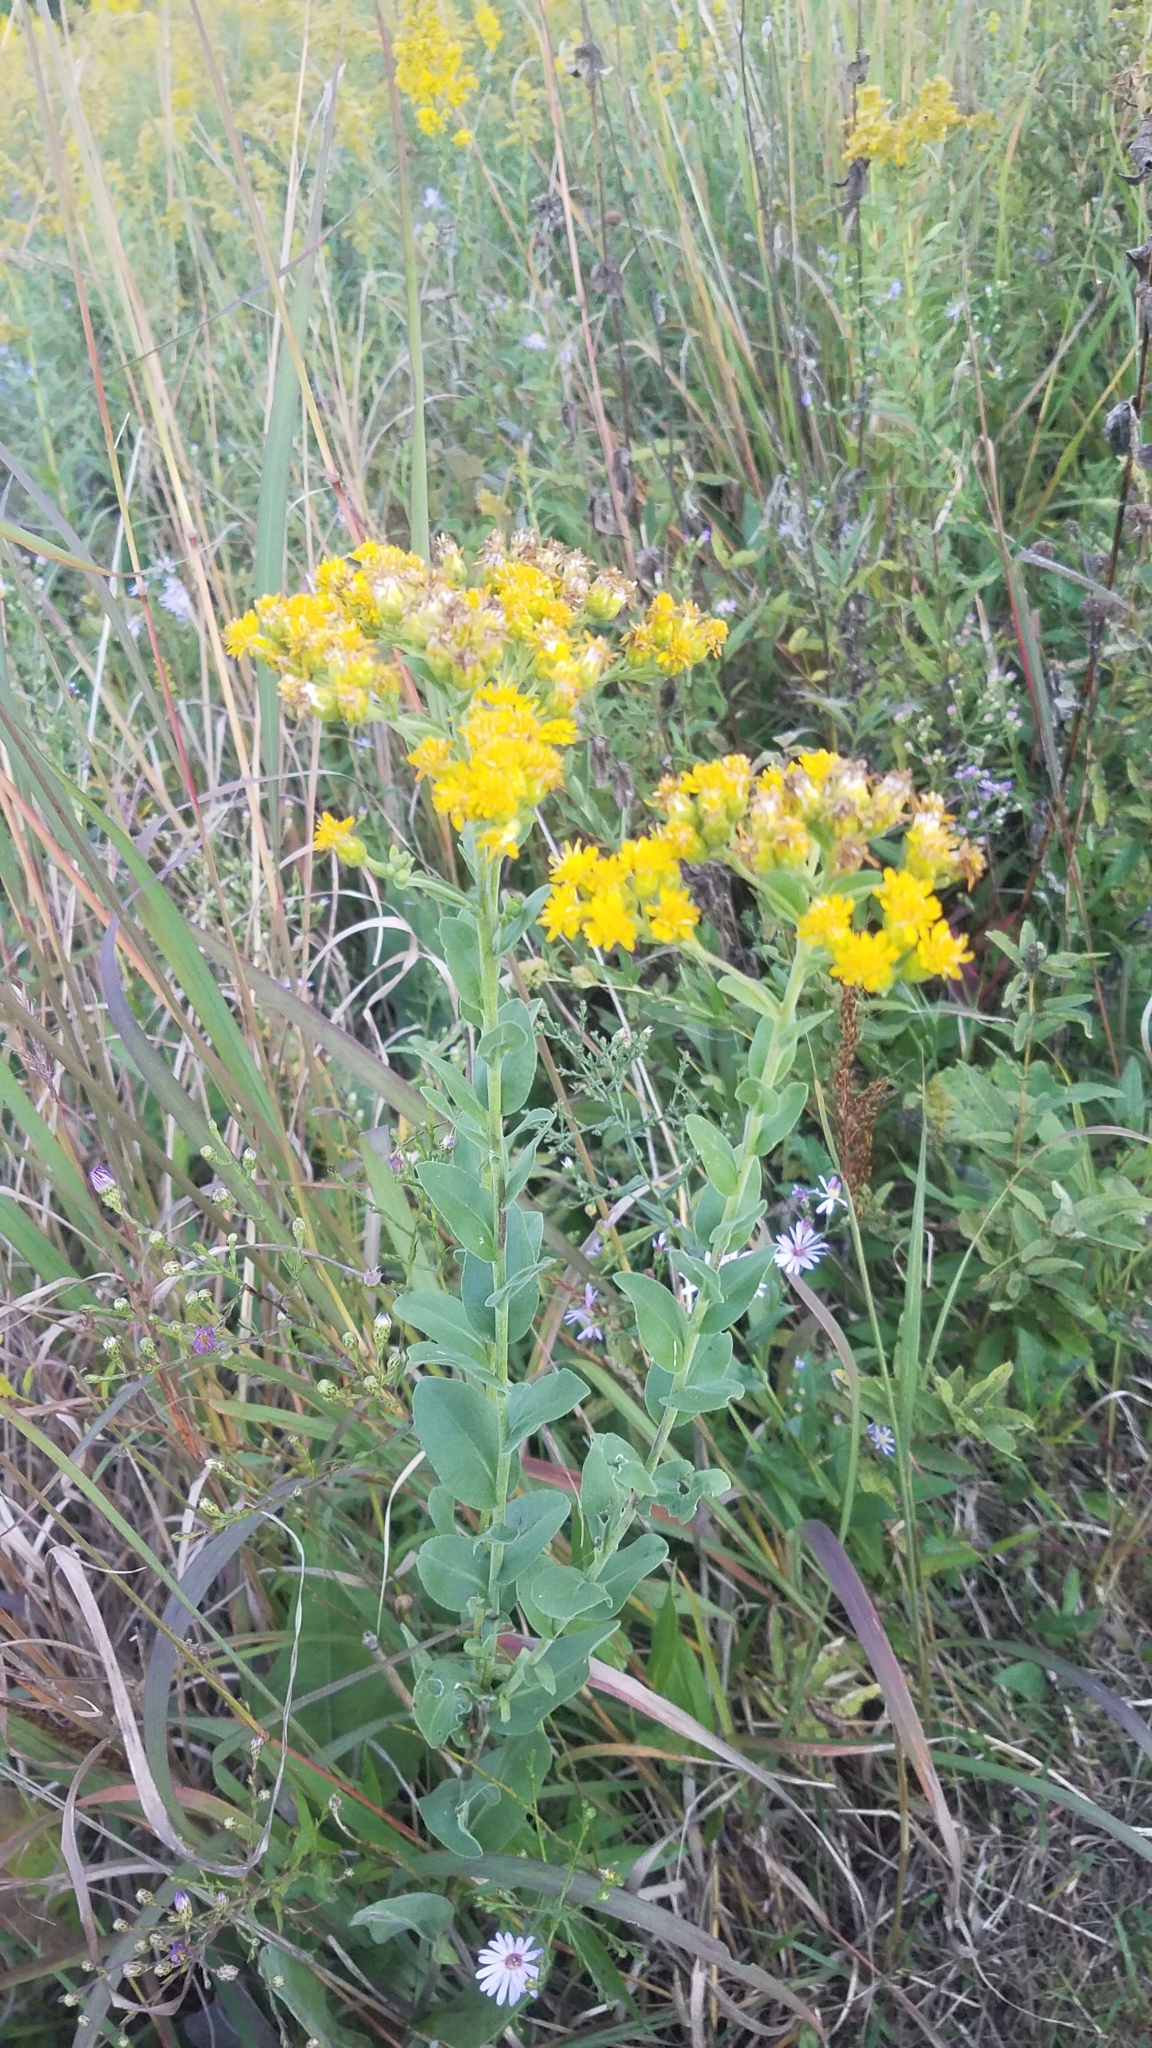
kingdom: Plantae
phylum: Tracheophyta
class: Magnoliopsida
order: Asterales
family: Asteraceae
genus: Solidago
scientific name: Solidago rigida
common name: Rigid goldenrod
